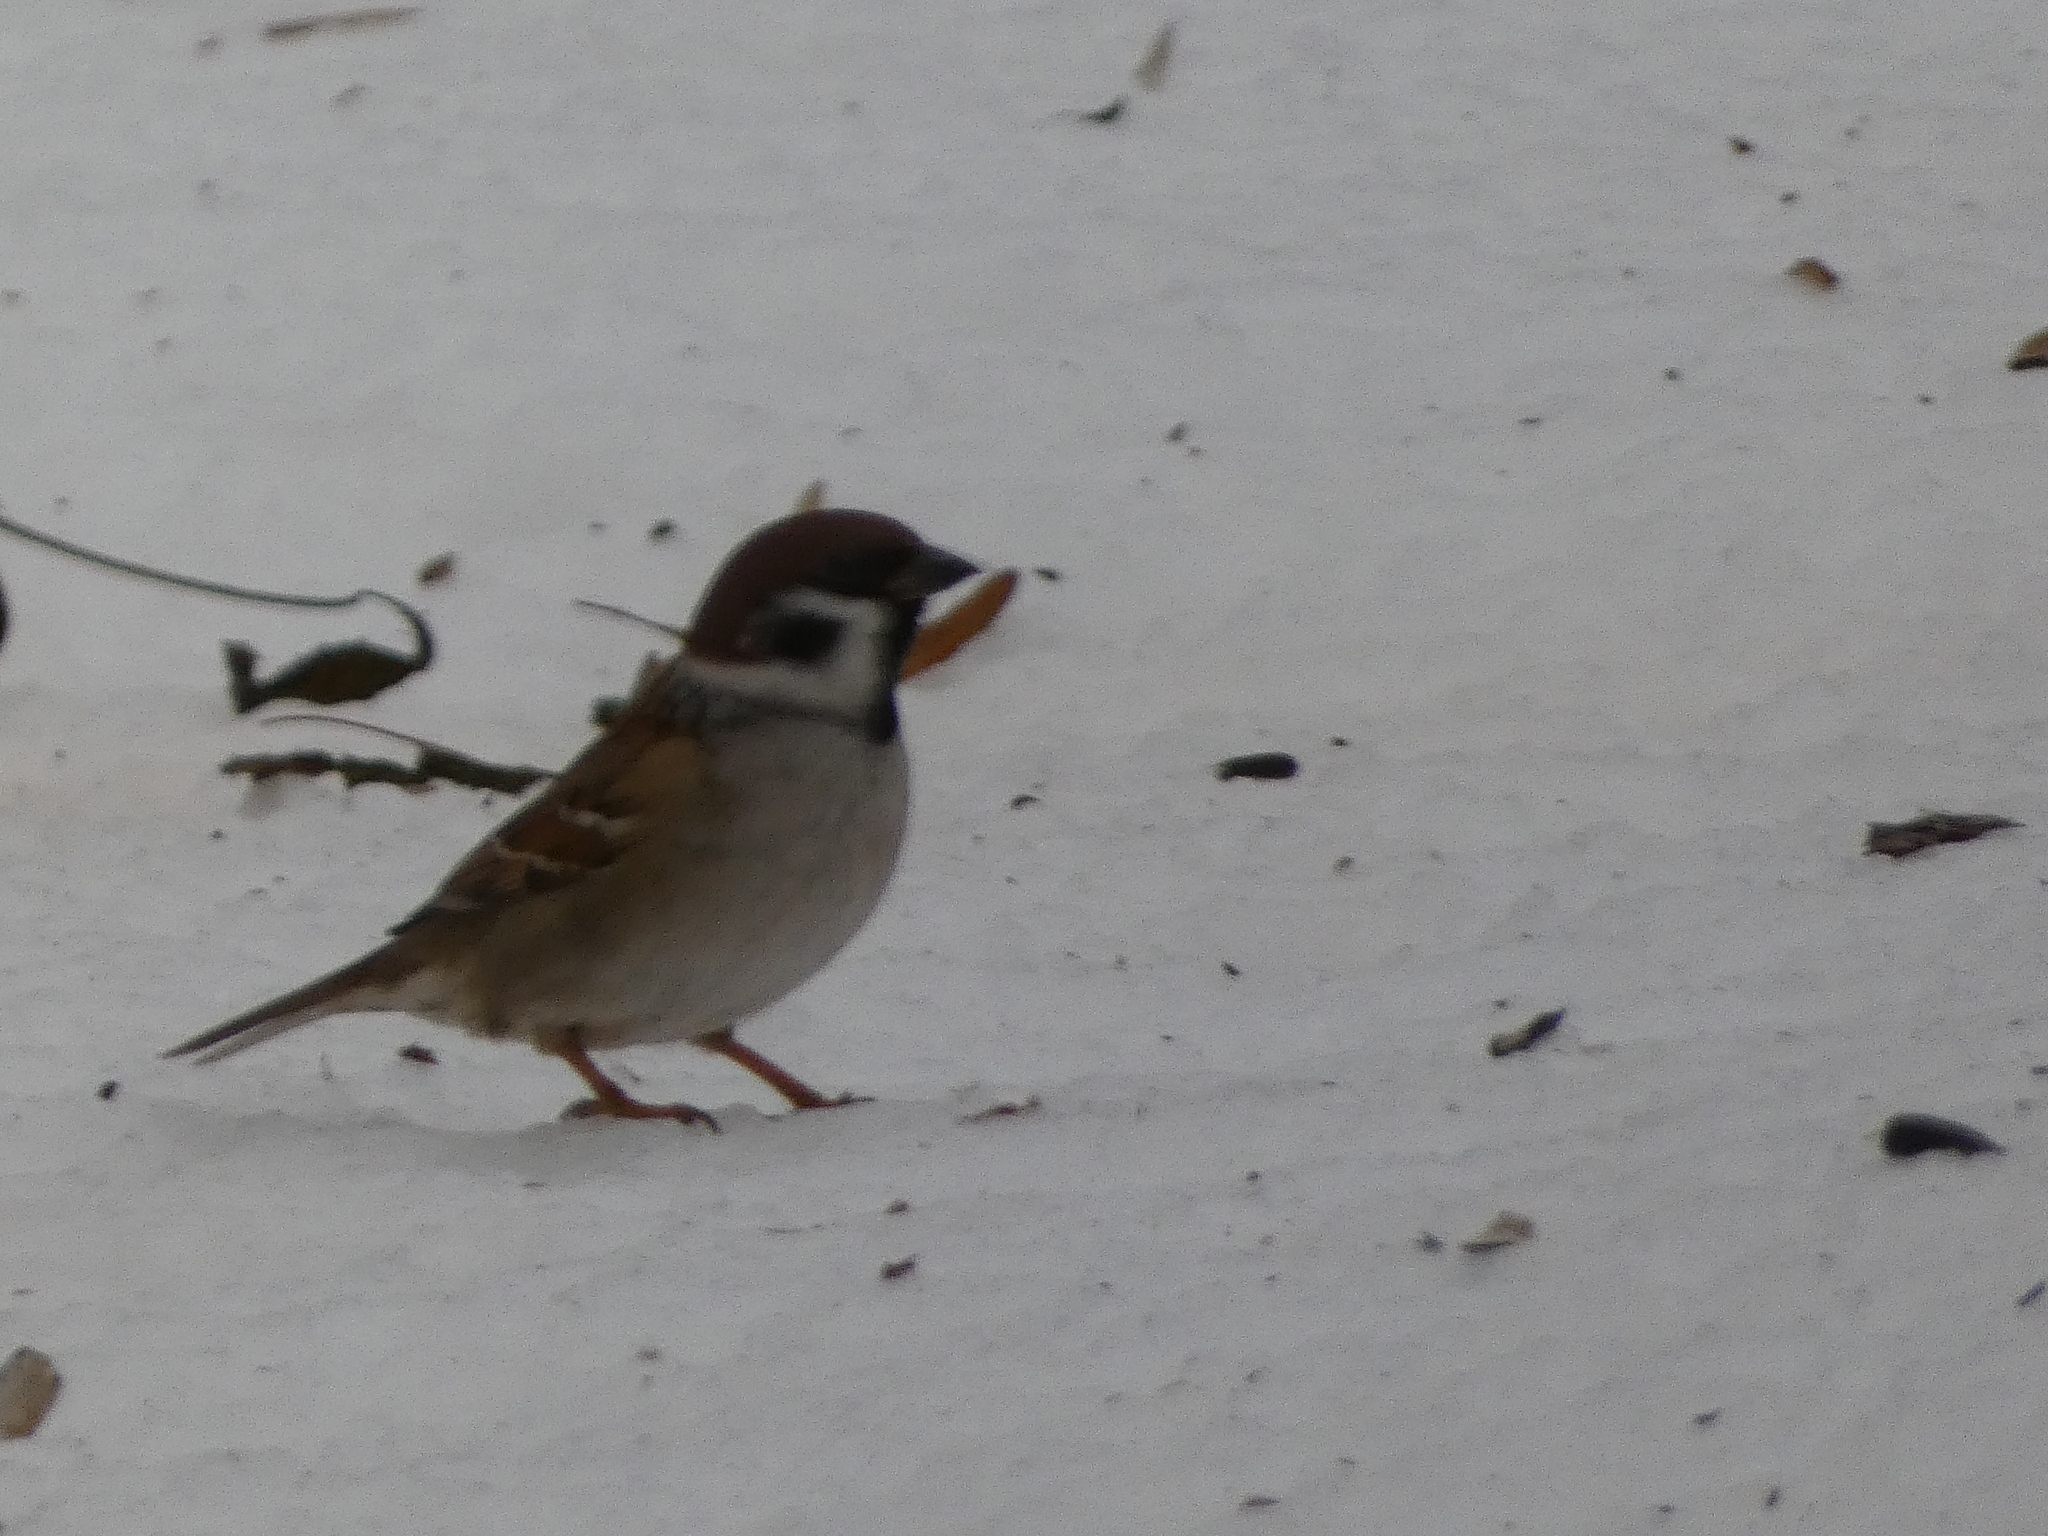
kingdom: Animalia
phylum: Chordata
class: Aves
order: Passeriformes
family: Passeridae
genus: Passer
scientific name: Passer montanus
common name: Eurasian tree sparrow
